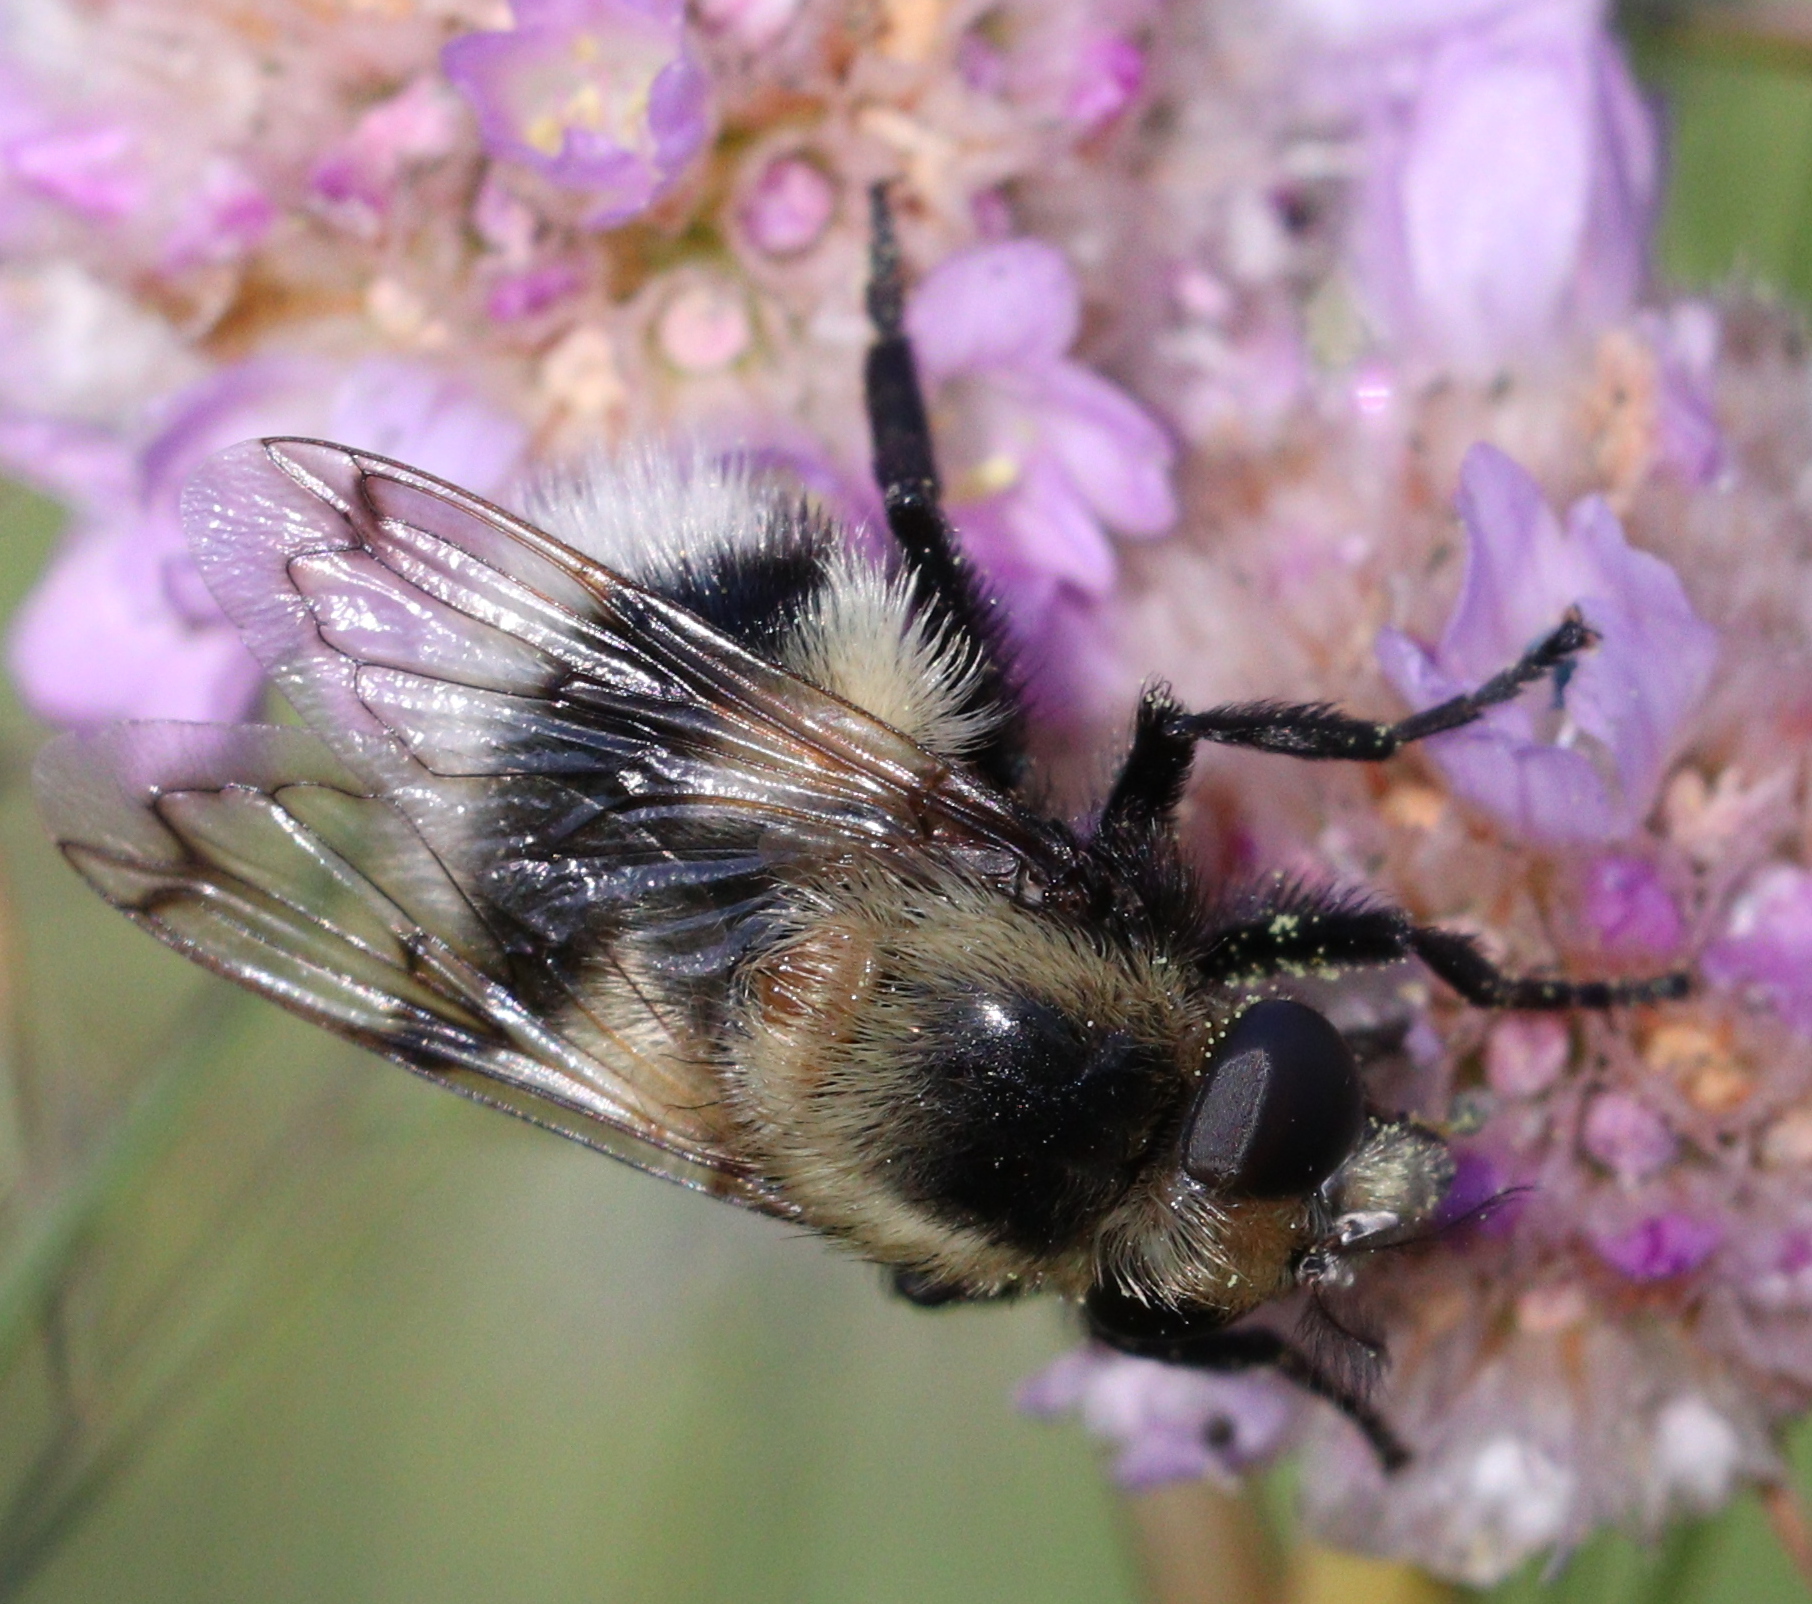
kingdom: Animalia
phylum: Arthropoda
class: Insecta
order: Diptera
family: Syrphidae
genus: Volucella
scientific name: Volucella bombylans
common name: Bumble bee hover fly
